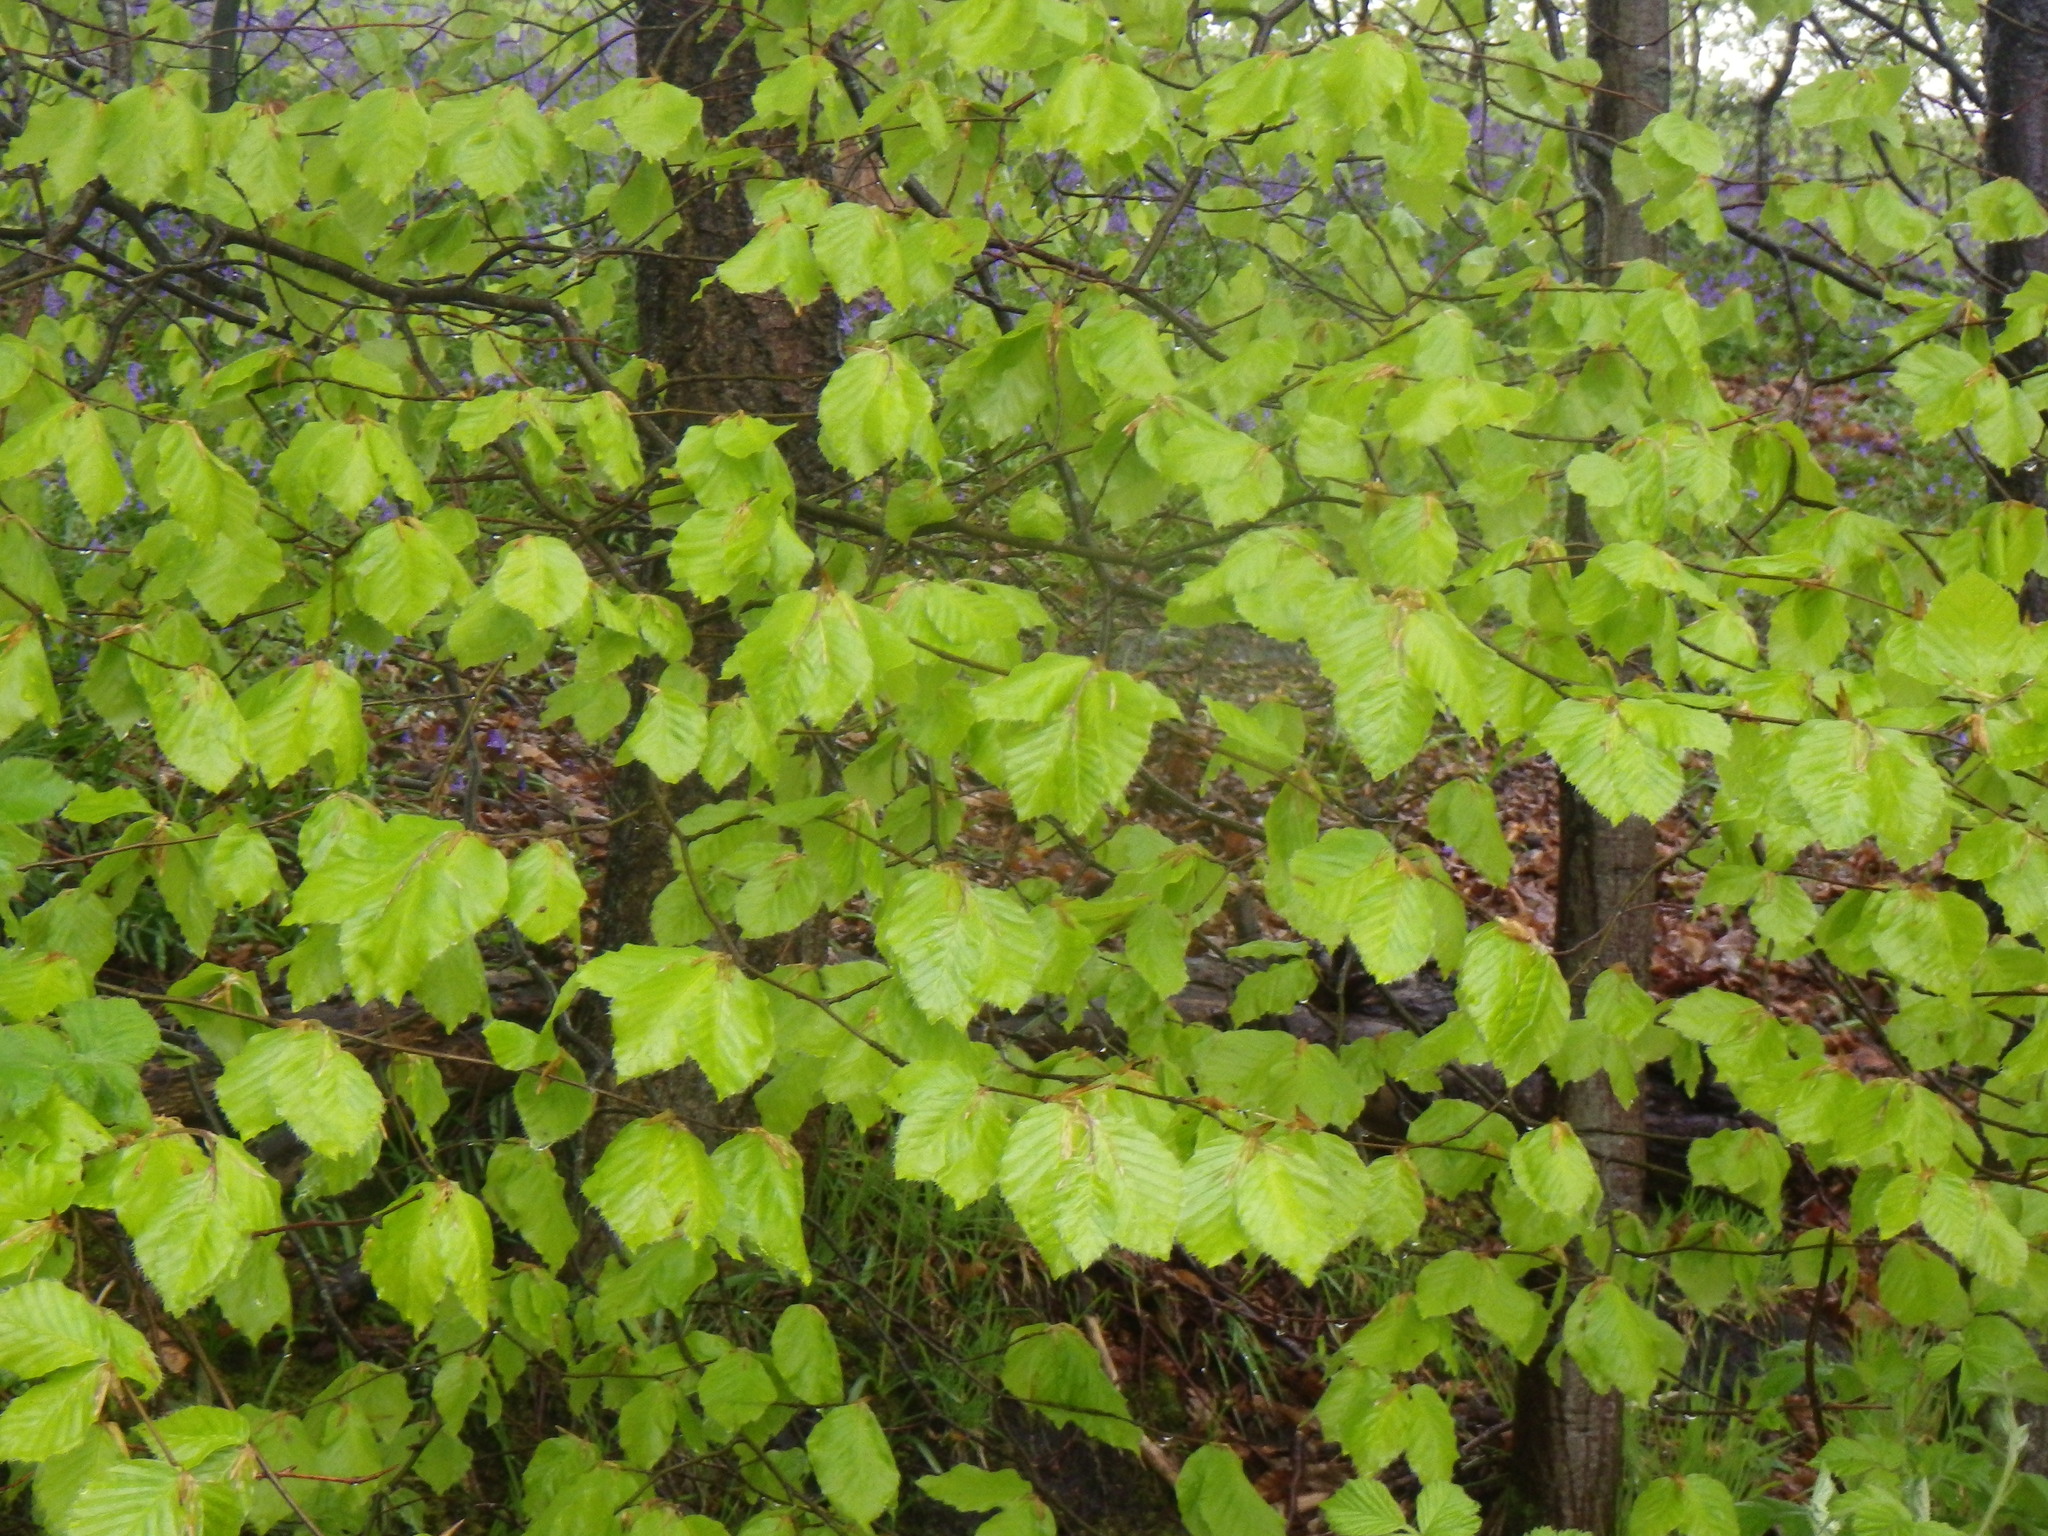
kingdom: Plantae
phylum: Tracheophyta
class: Magnoliopsida
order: Fagales
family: Fagaceae
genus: Fagus
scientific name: Fagus sylvatica
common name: Beech
